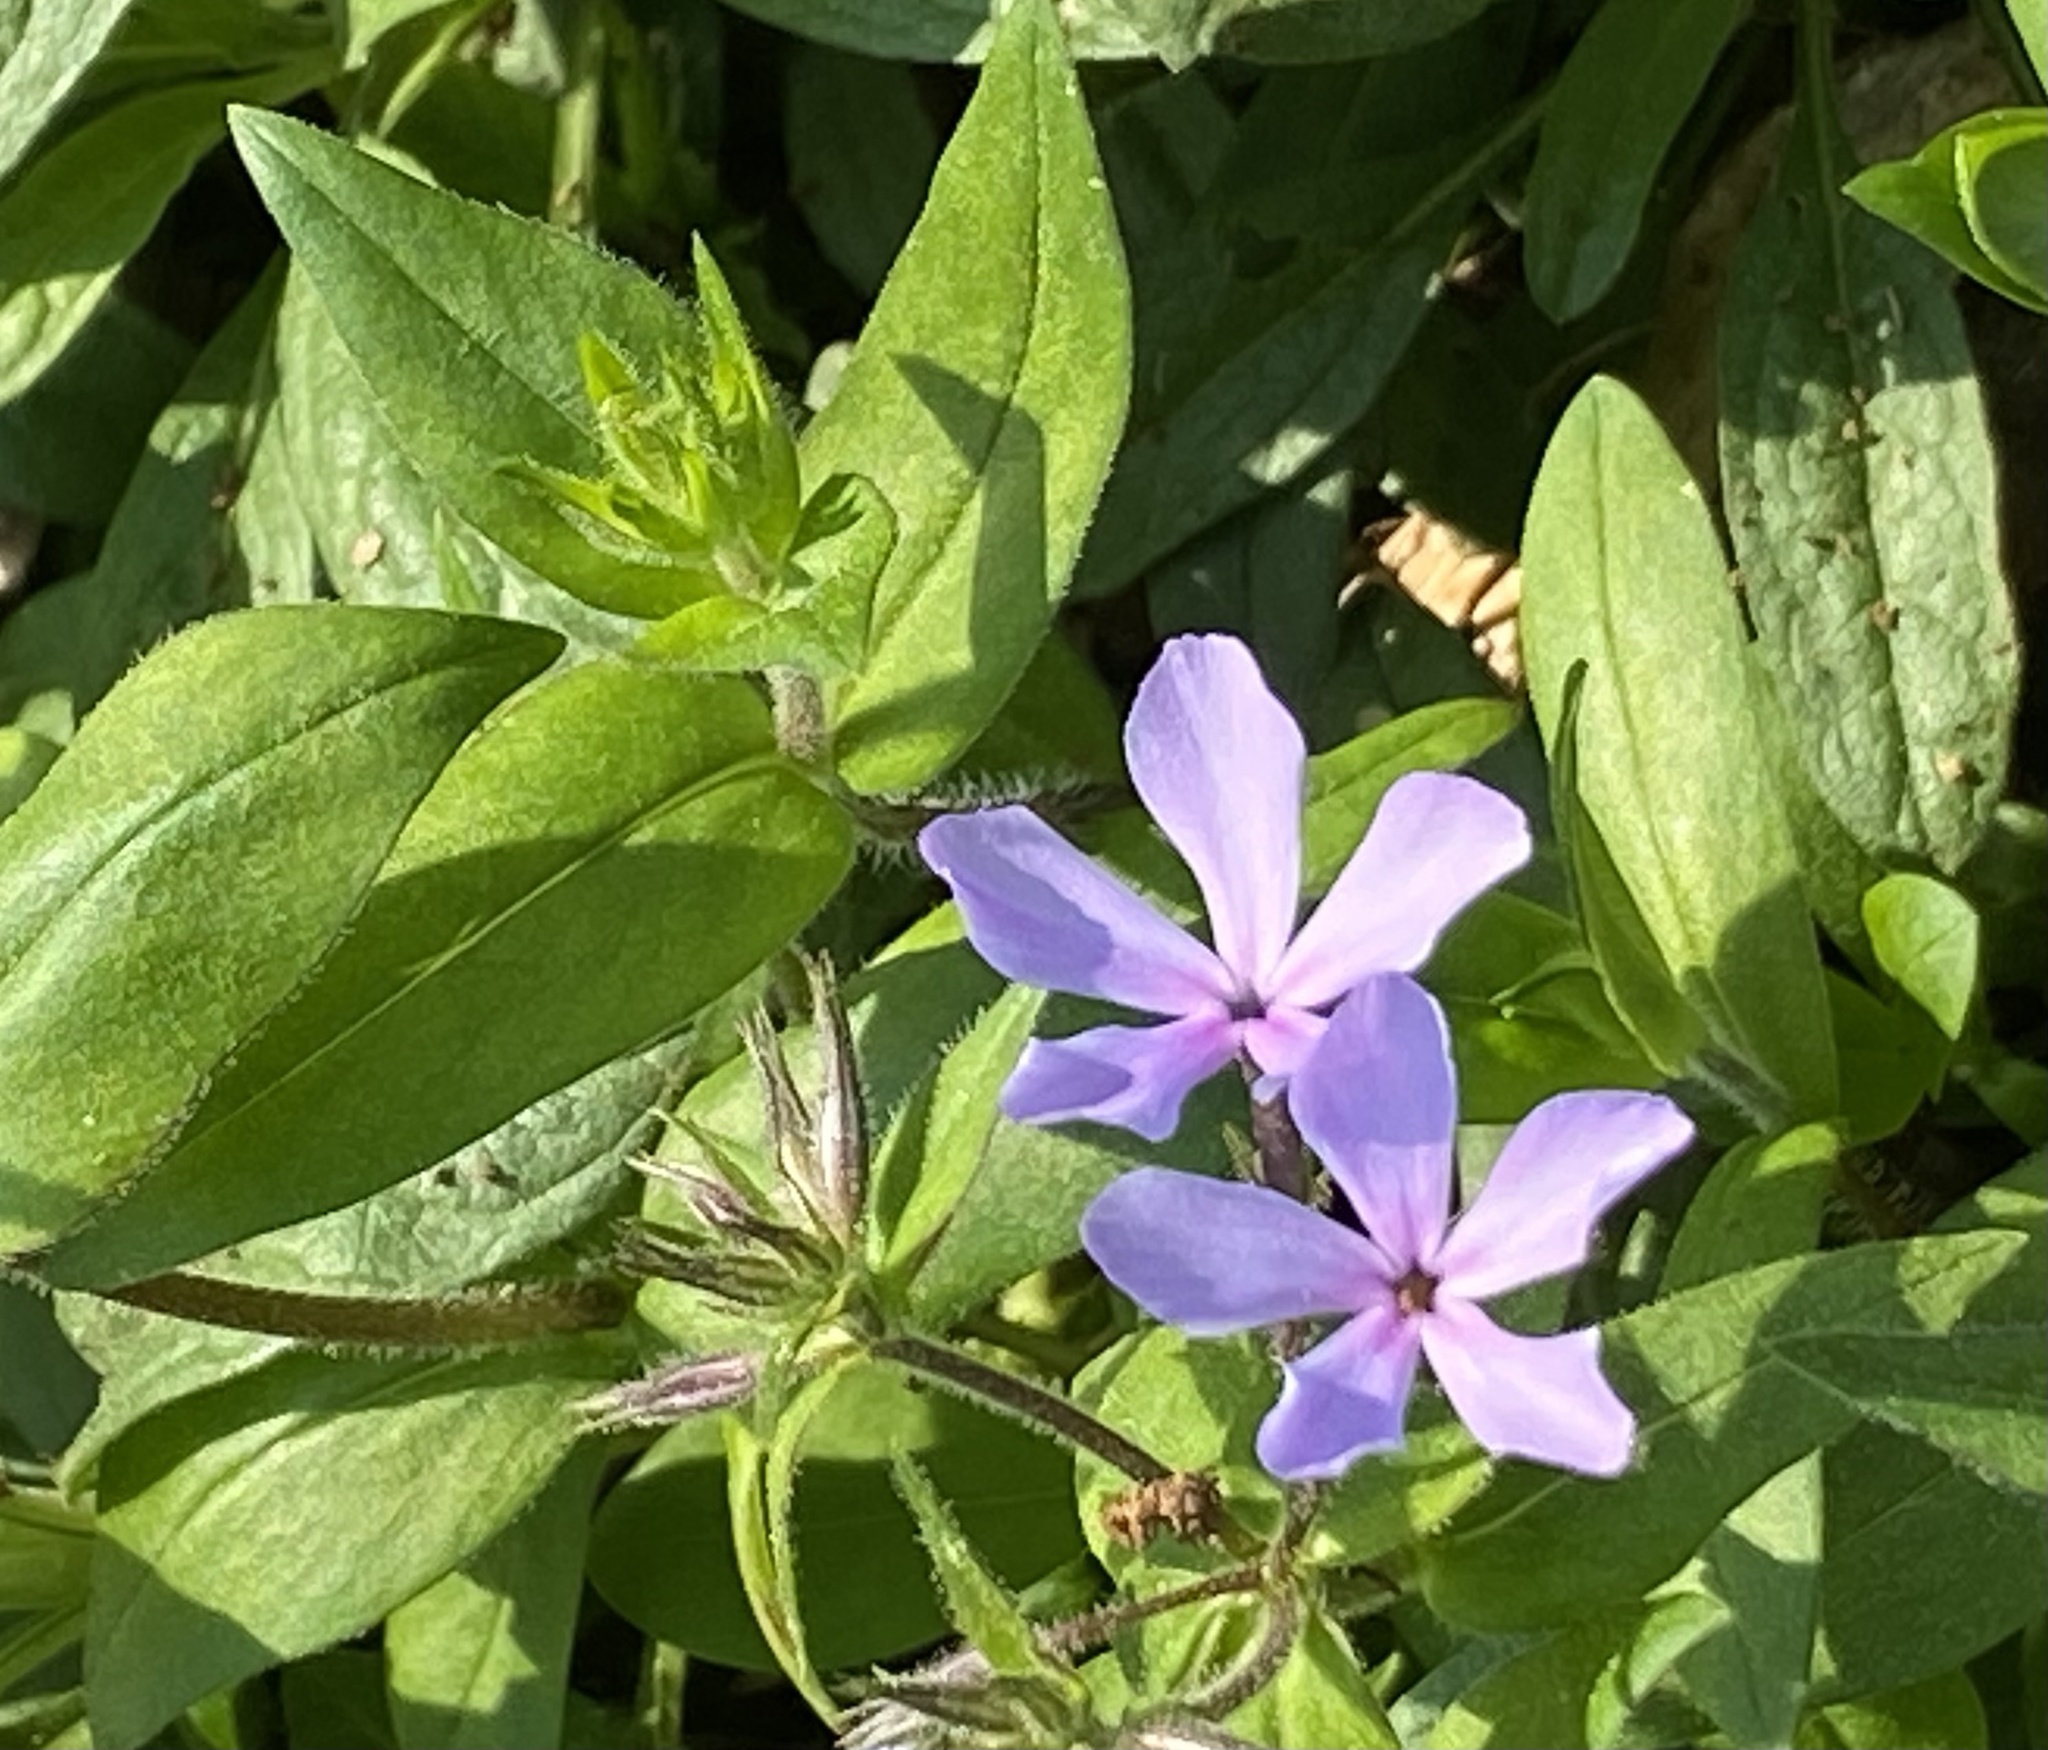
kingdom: Plantae
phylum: Tracheophyta
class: Magnoliopsida
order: Ericales
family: Polemoniaceae
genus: Phlox
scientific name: Phlox divaricata
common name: Blue phlox
